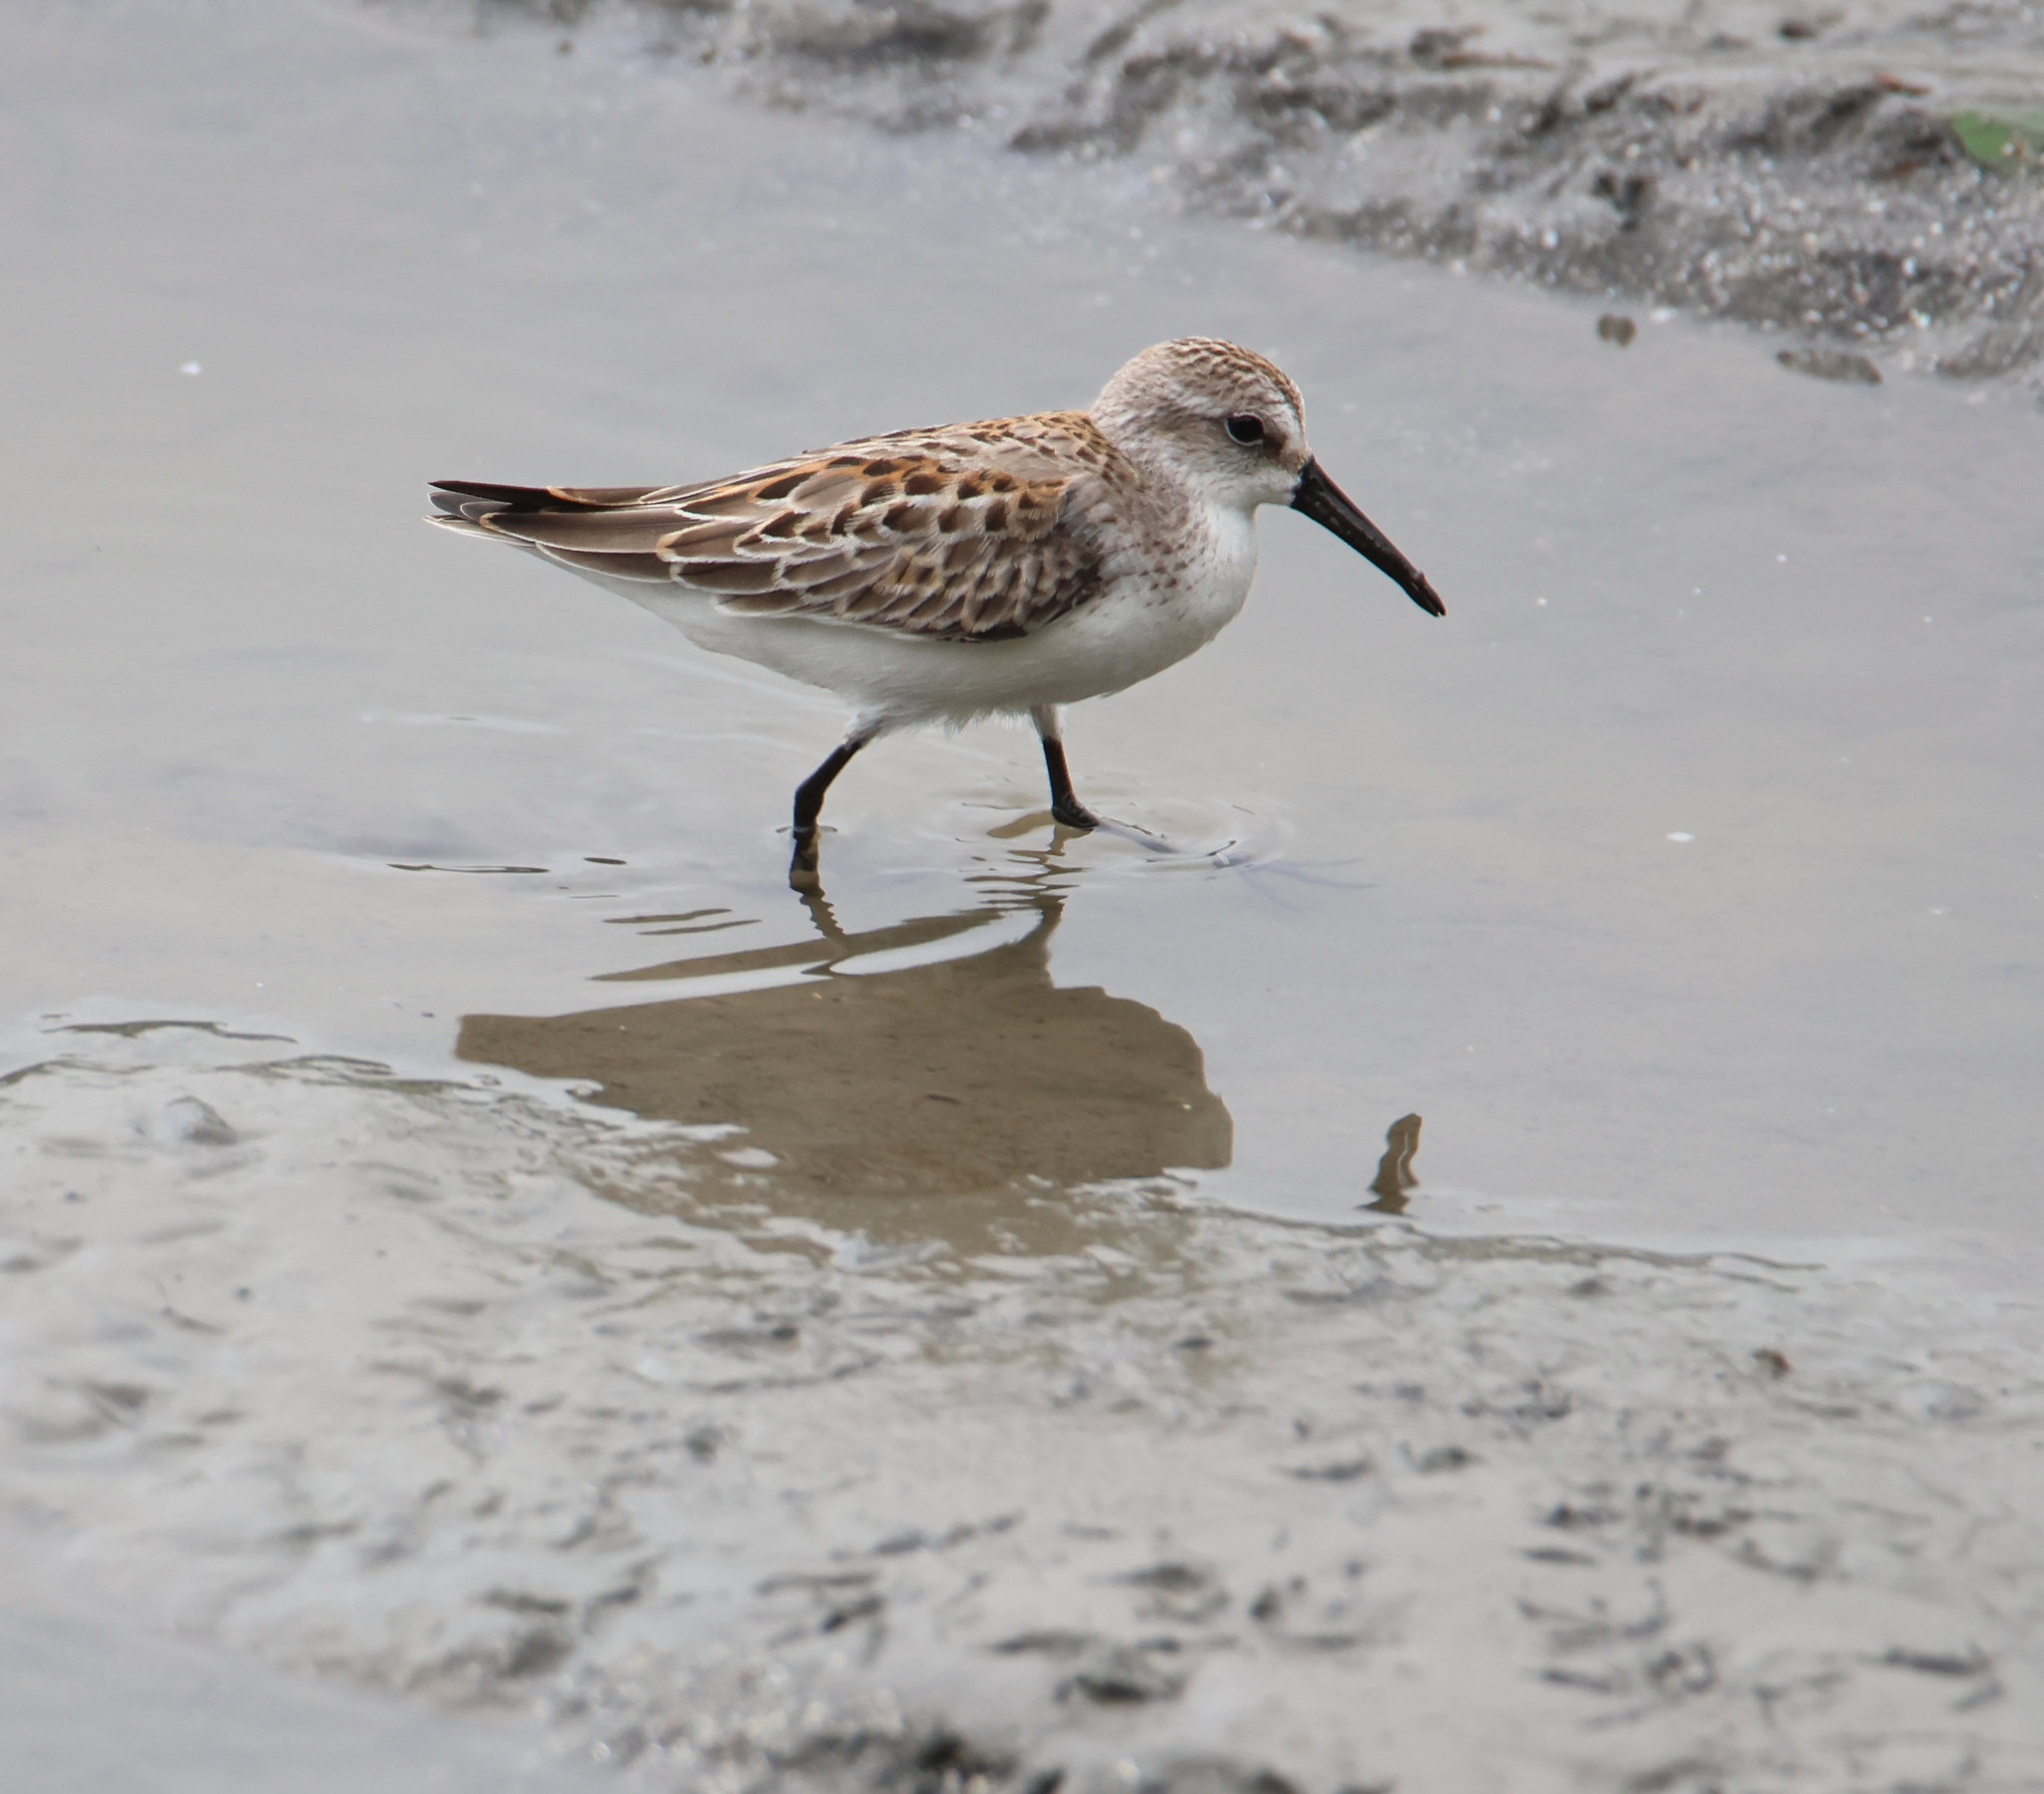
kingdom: Animalia
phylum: Chordata
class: Aves
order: Charadriiformes
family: Scolopacidae
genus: Calidris
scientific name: Calidris mauri
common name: Western sandpiper
